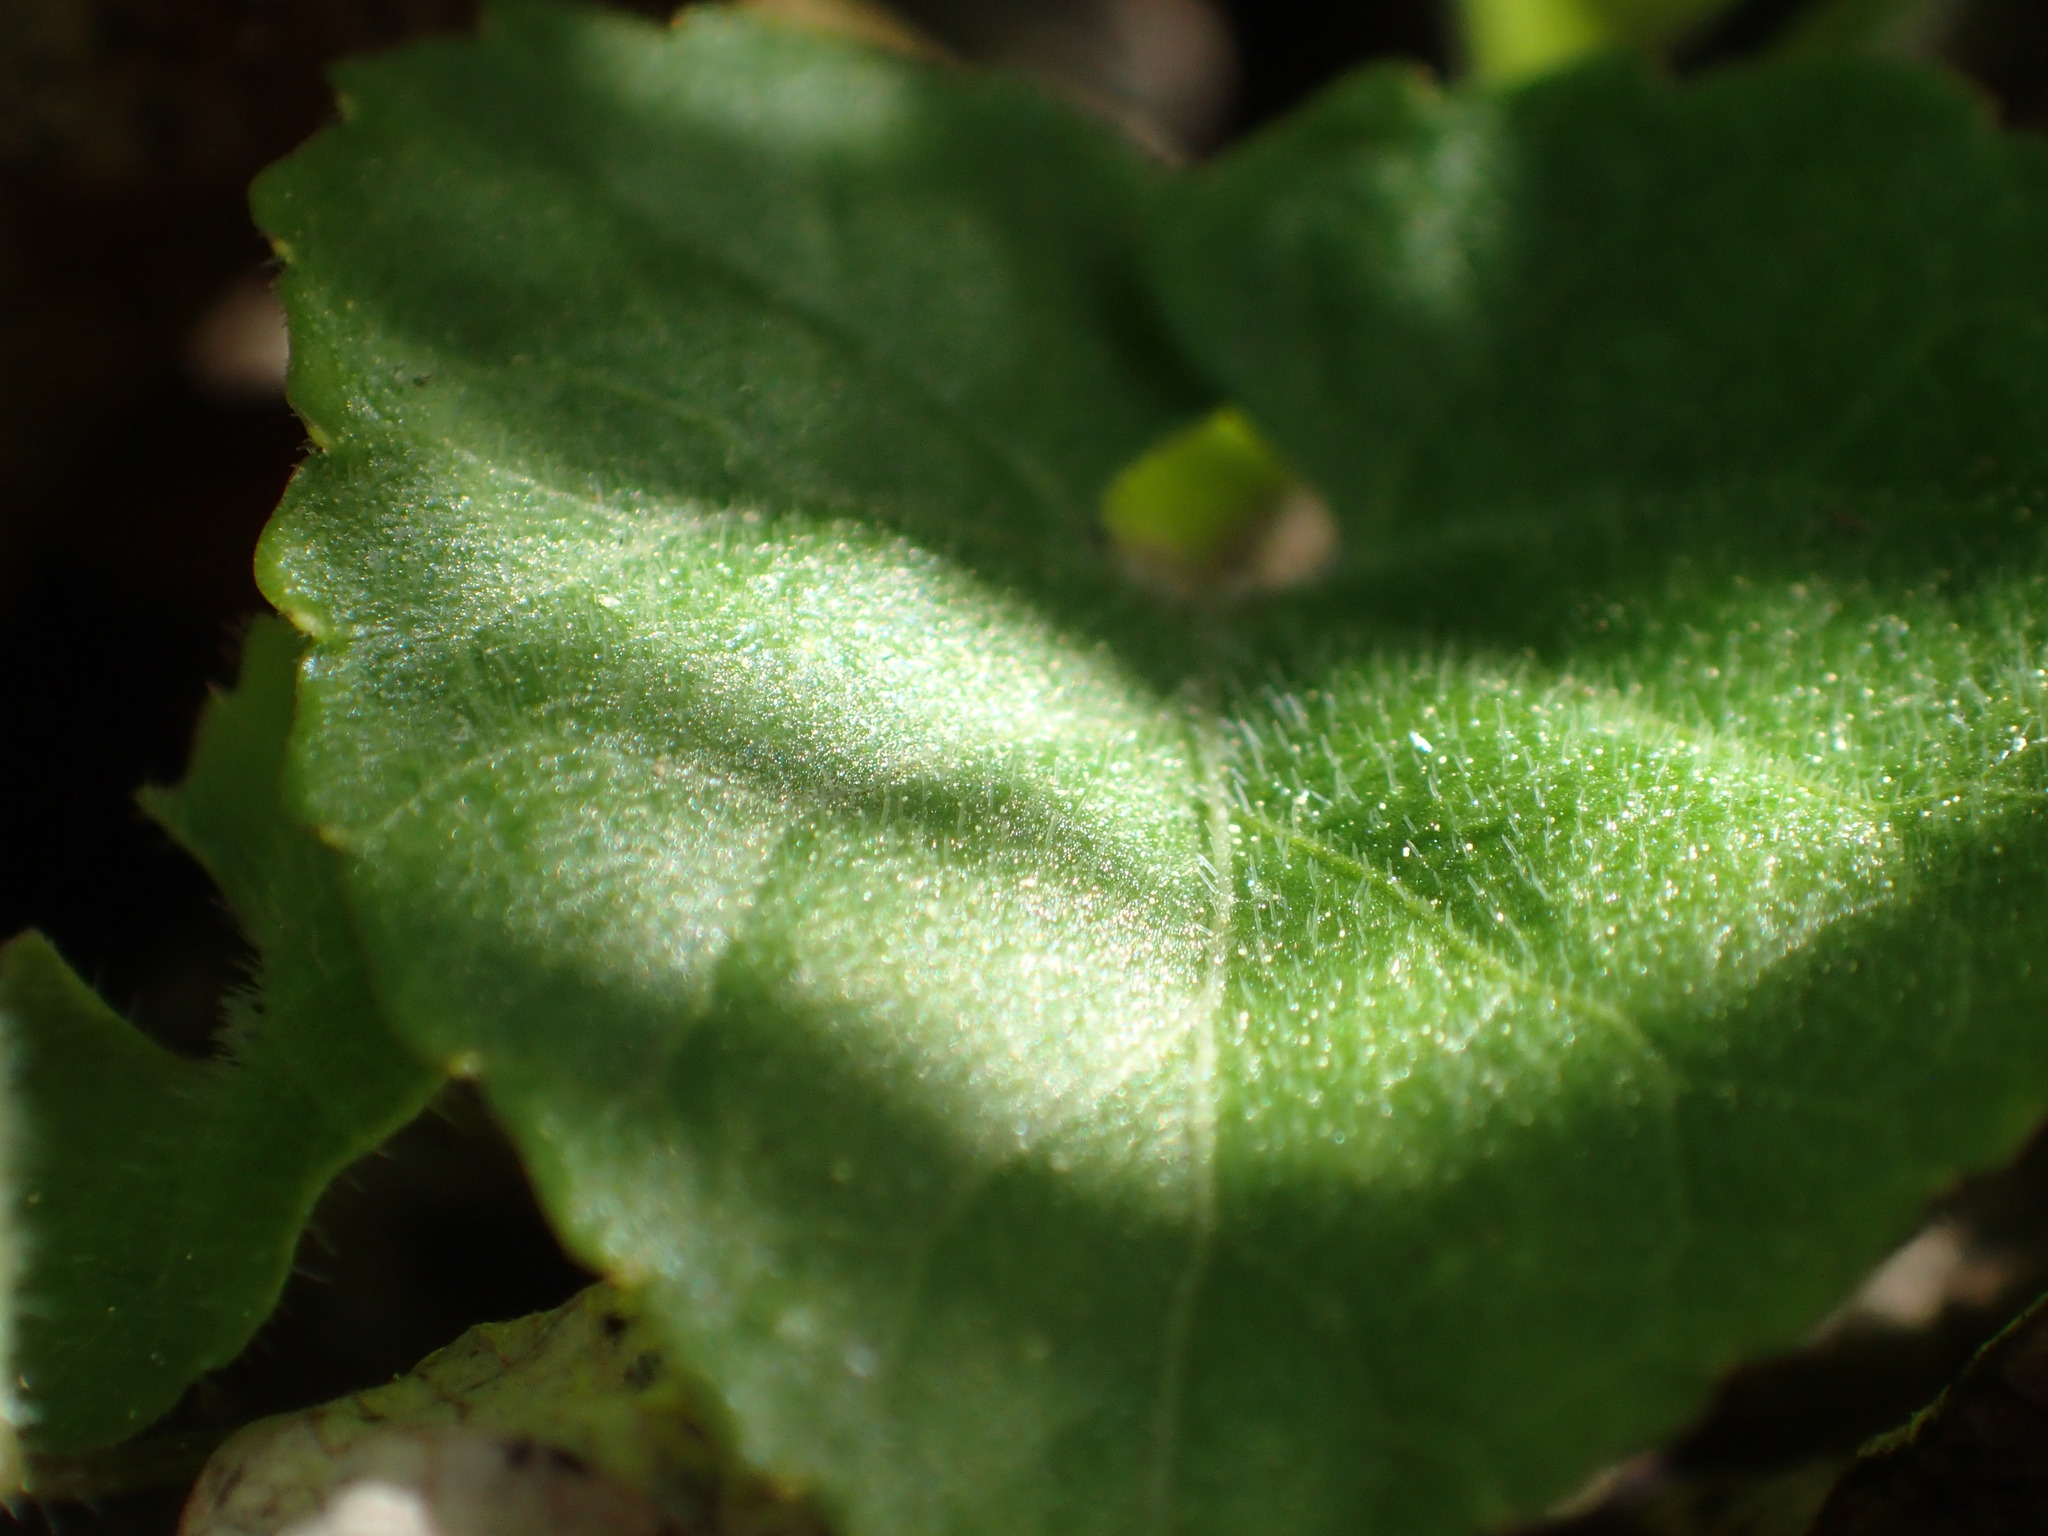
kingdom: Plantae
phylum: Tracheophyta
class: Magnoliopsida
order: Malpighiales
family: Violaceae
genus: Viola
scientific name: Viola selkirkii
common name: Selkirk's violet
